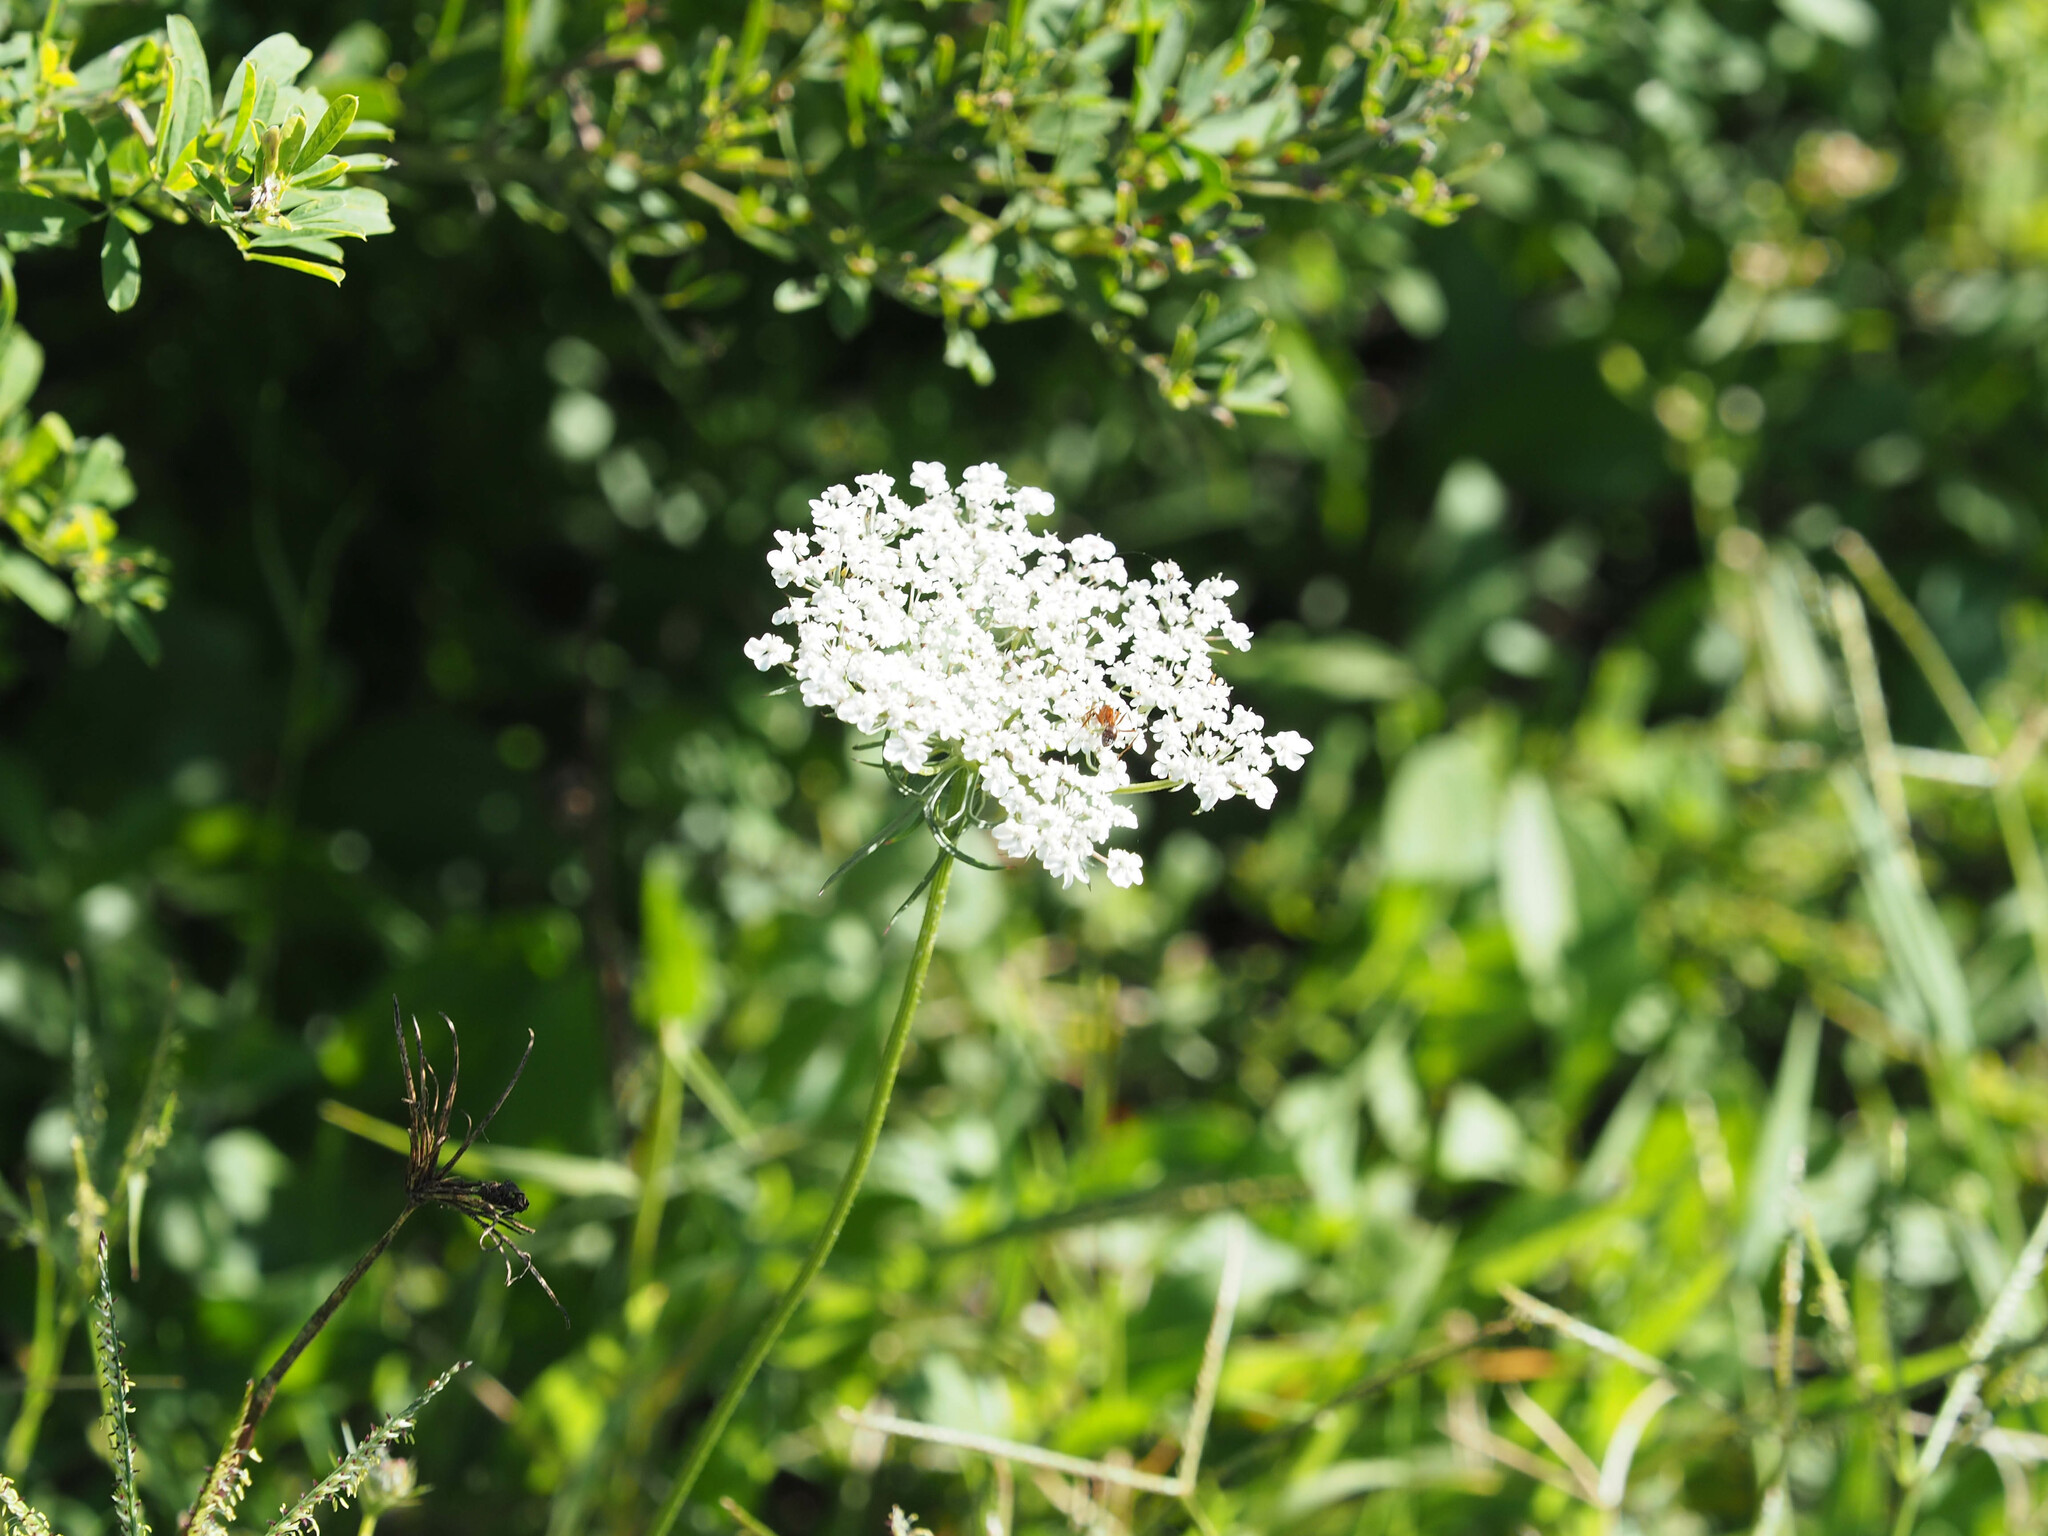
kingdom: Plantae
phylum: Tracheophyta
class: Magnoliopsida
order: Apiales
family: Apiaceae
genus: Daucus
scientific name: Daucus carota
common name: Wild carrot
